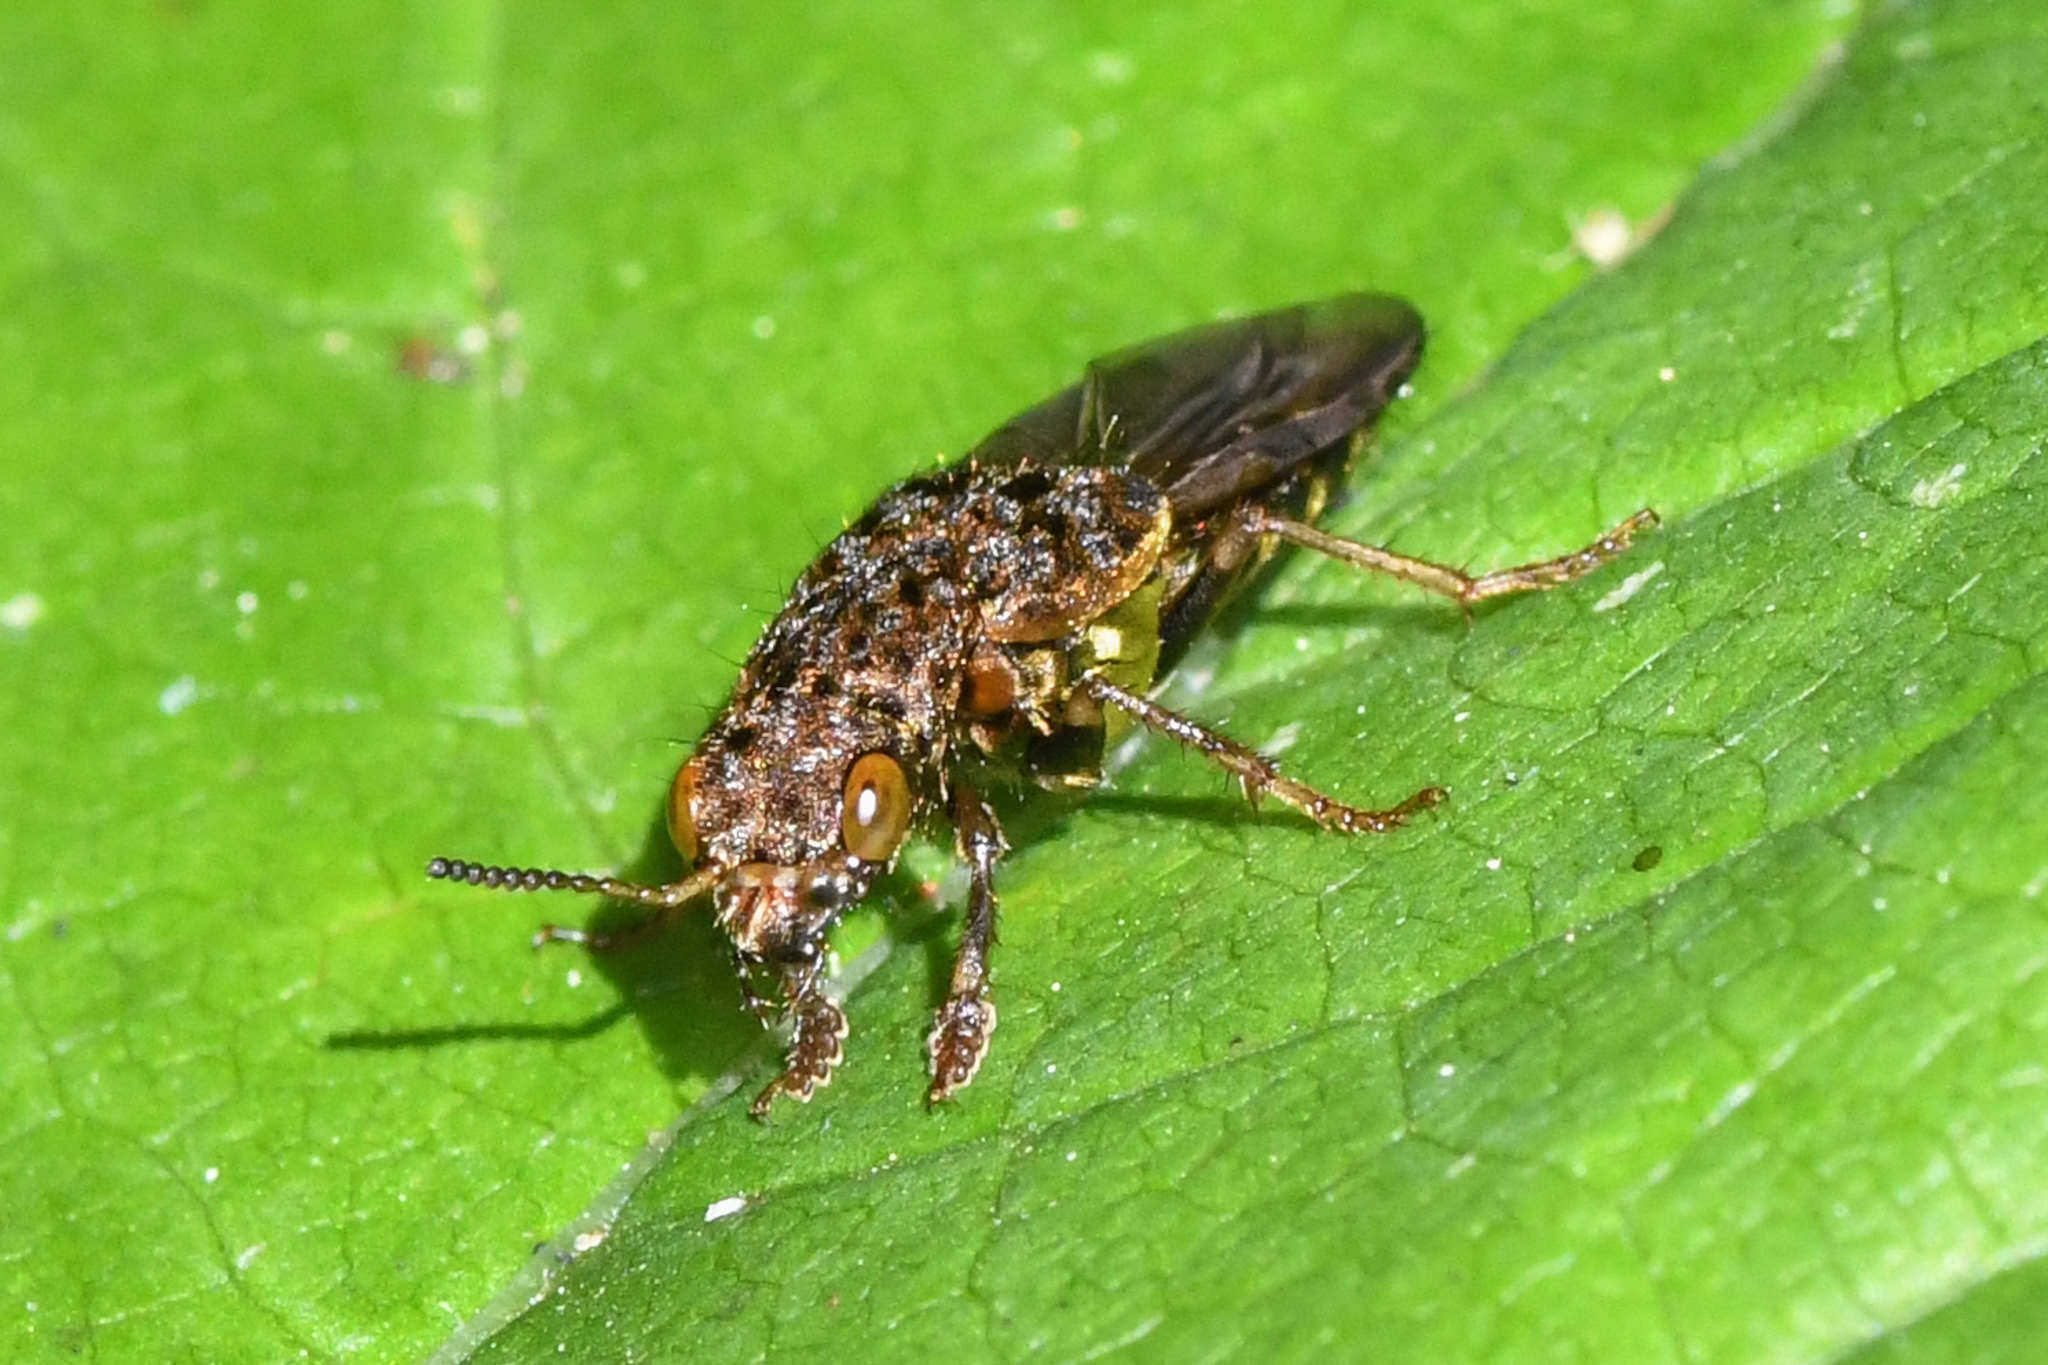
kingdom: Animalia
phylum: Arthropoda
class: Insecta
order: Coleoptera
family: Staphylinidae
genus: Ontholestes
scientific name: Ontholestes cingulatus
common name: Gold-and-brown rove beetle
